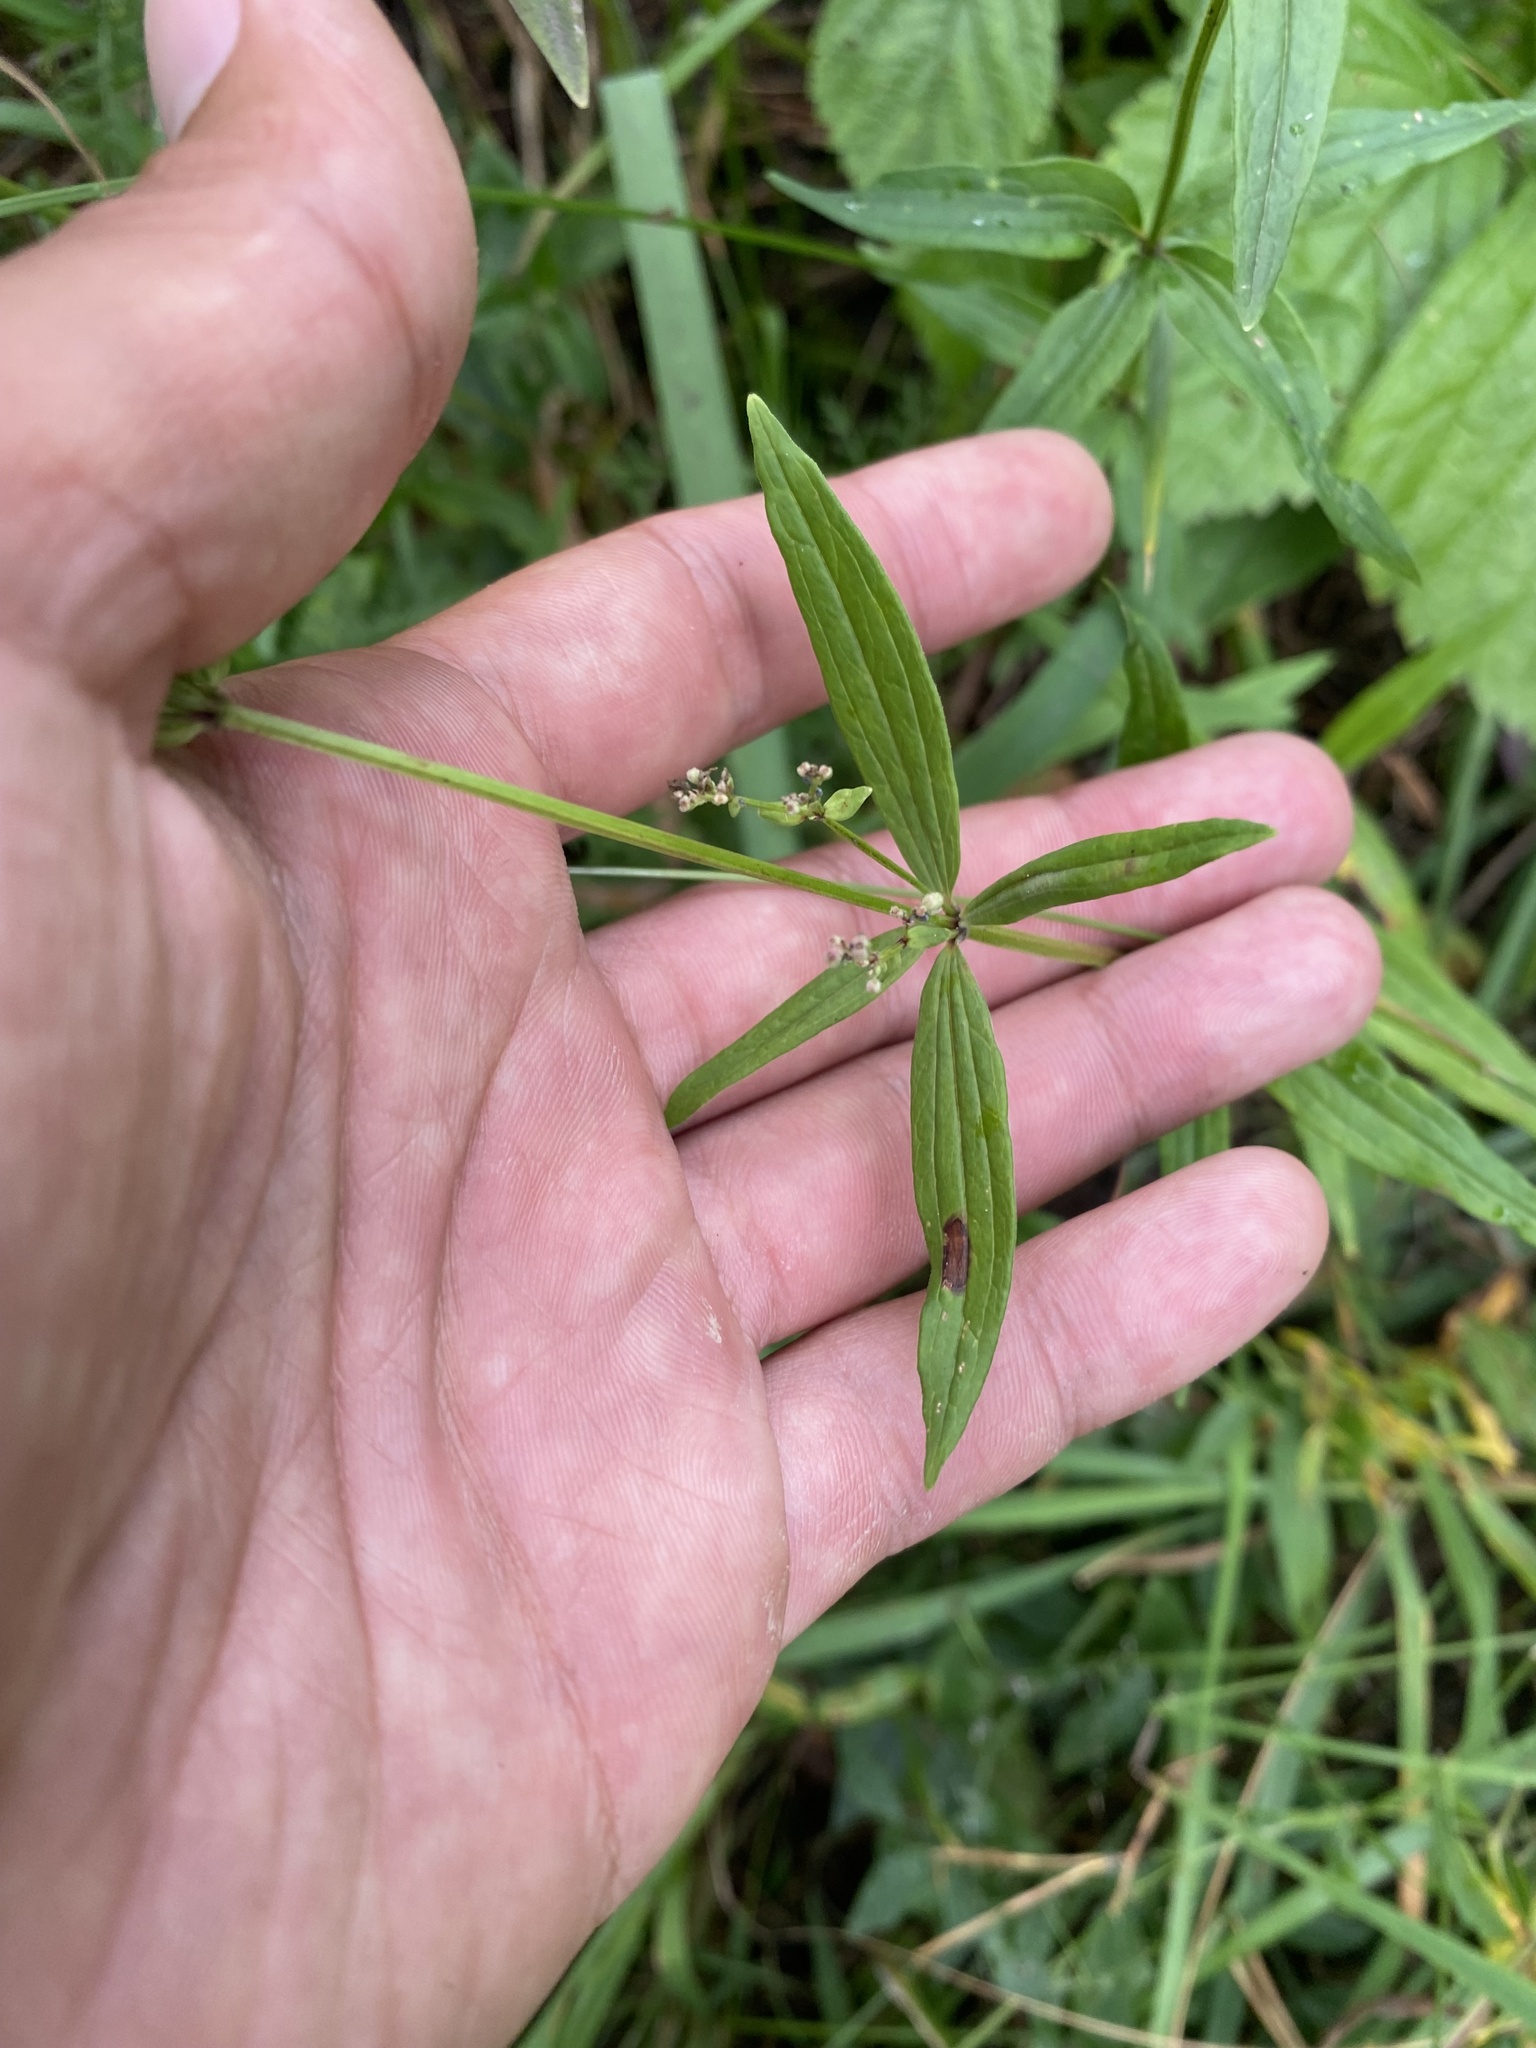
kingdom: Plantae
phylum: Tracheophyta
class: Magnoliopsida
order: Gentianales
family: Rubiaceae
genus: Galium
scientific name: Galium boreale
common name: Northern bedstraw
